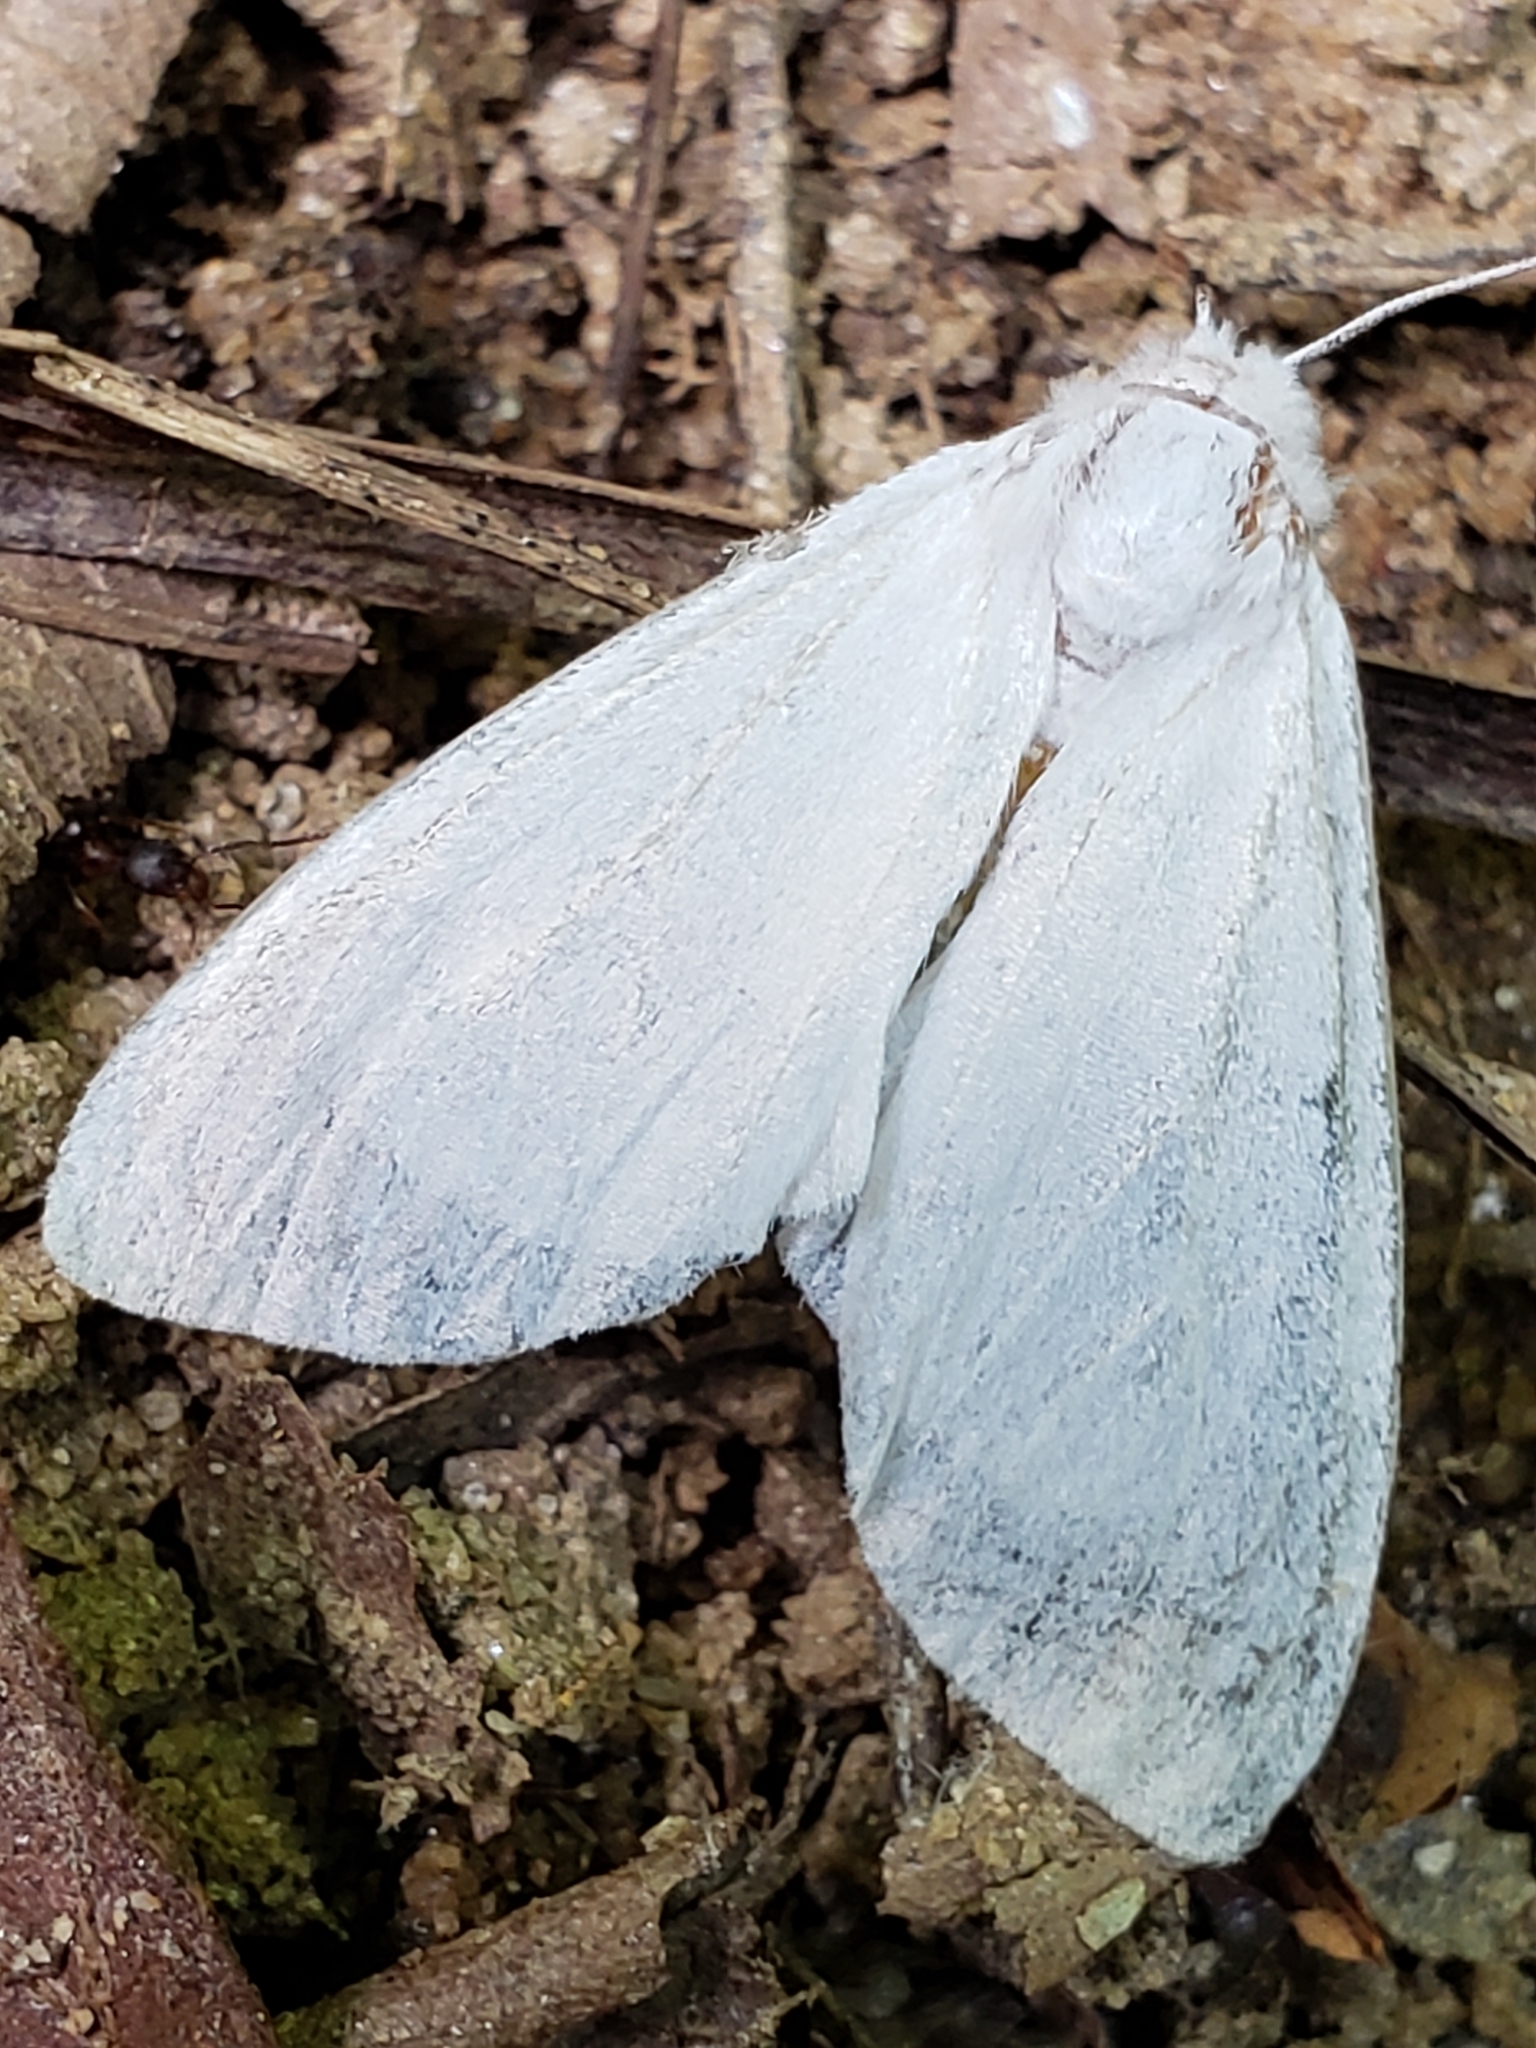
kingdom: Animalia
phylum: Arthropoda
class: Insecta
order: Lepidoptera
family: Erebidae
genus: Hyphantria
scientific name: Hyphantria cunea
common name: American white moth
